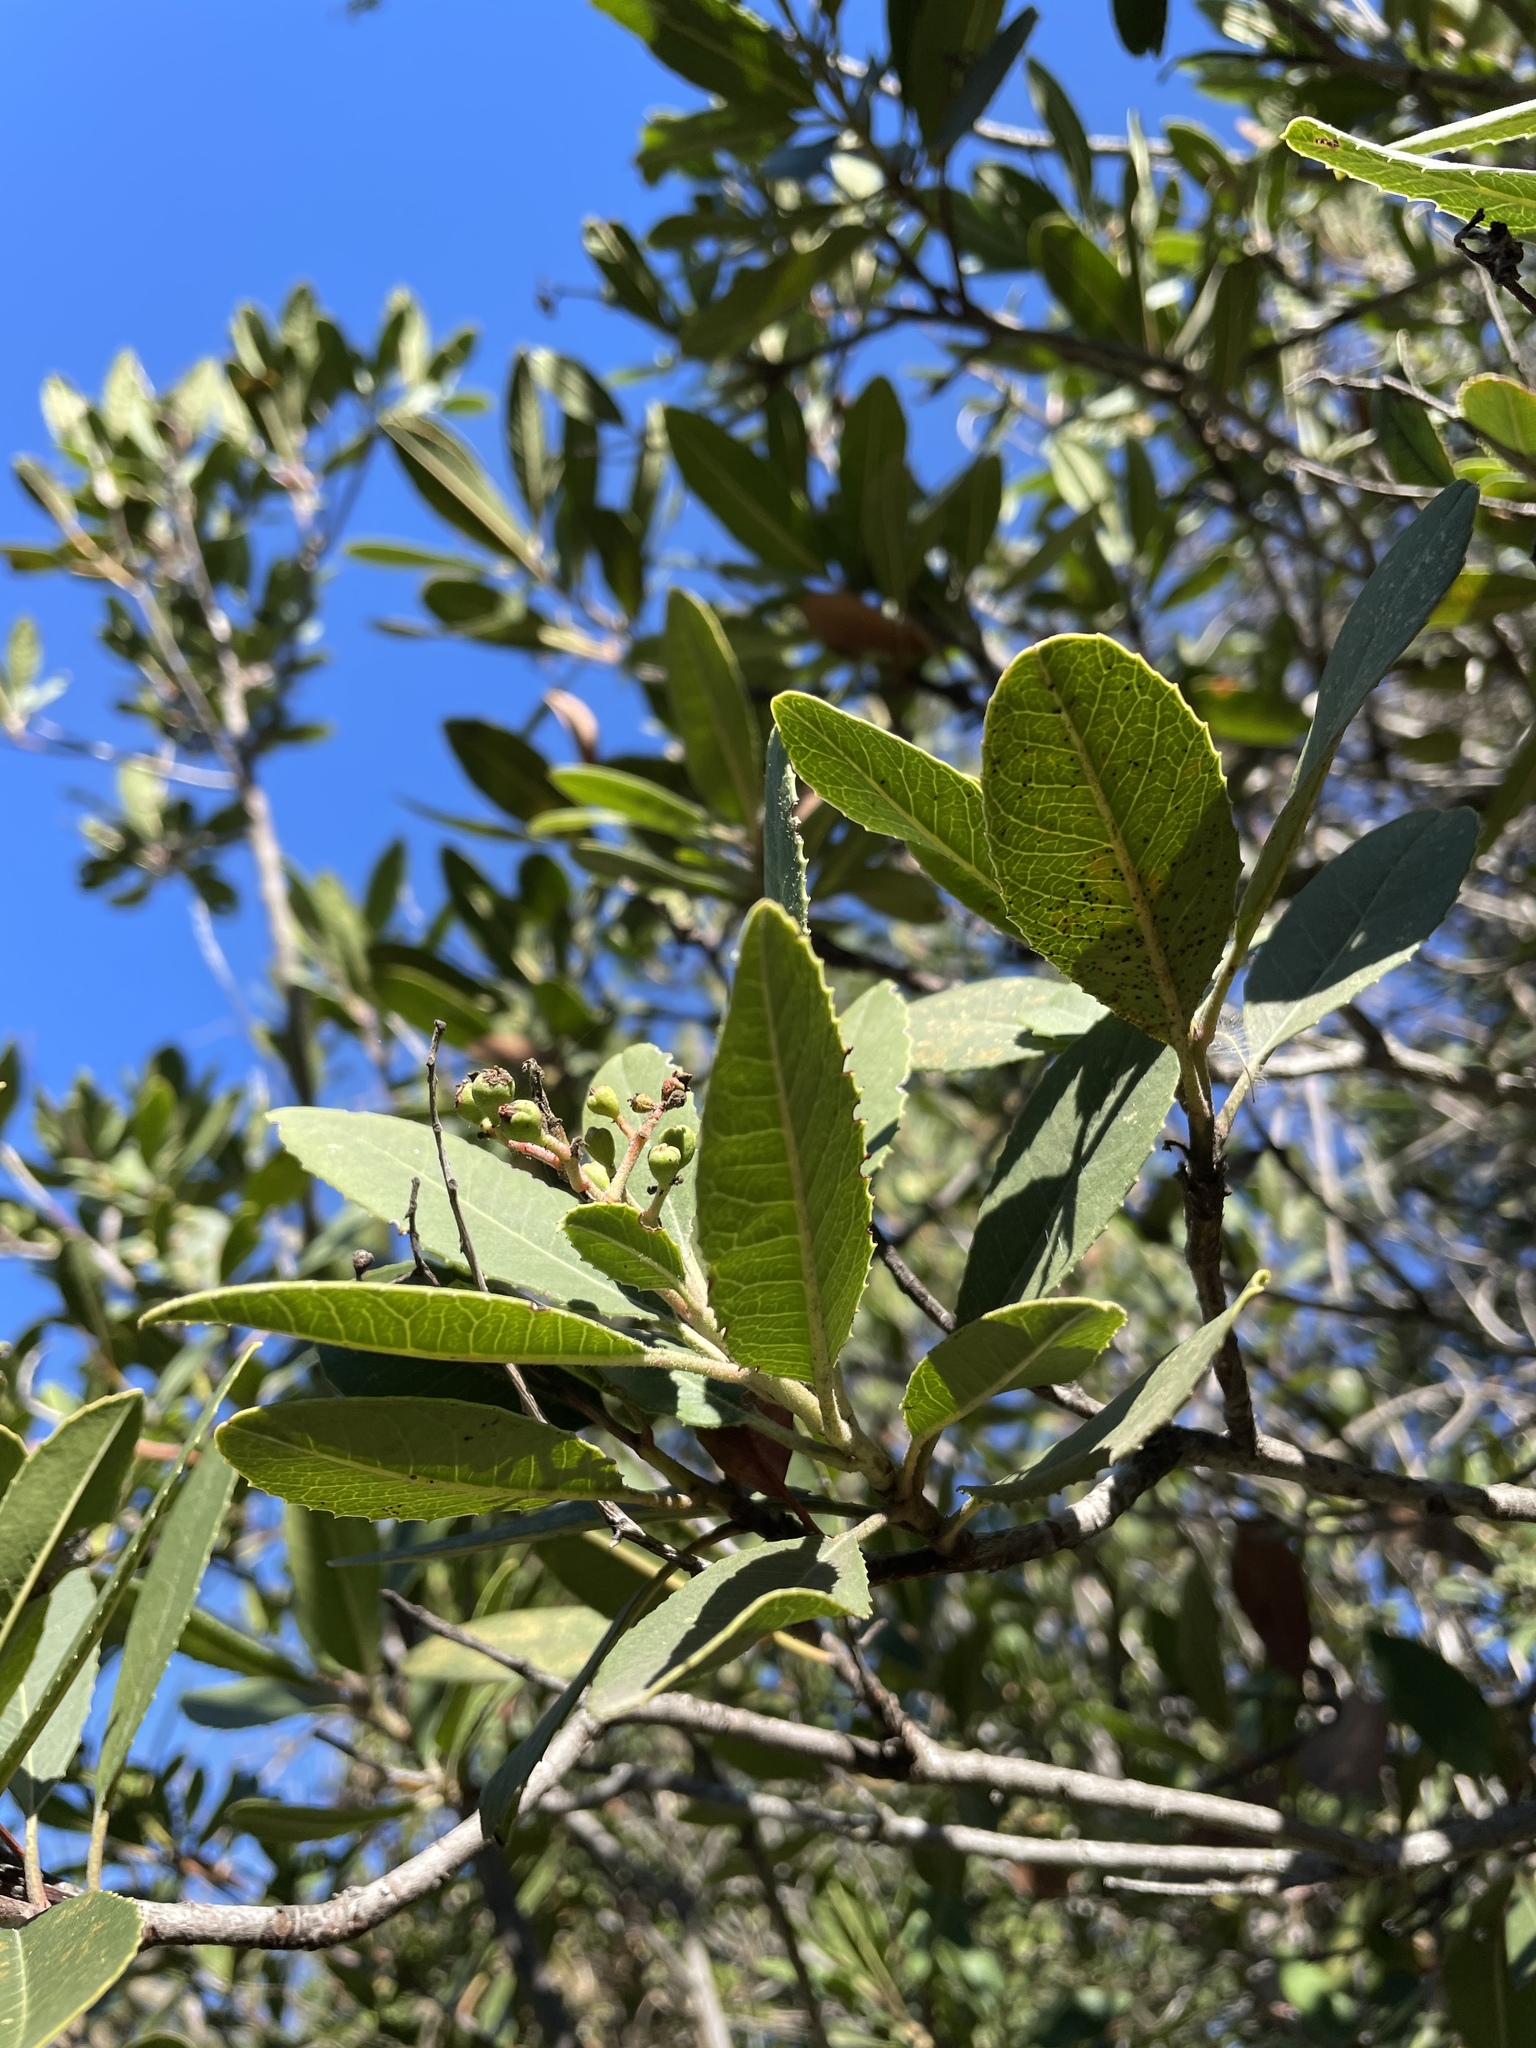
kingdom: Plantae
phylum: Tracheophyta
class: Magnoliopsida
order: Rosales
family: Rosaceae
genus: Heteromeles
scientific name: Heteromeles arbutifolia
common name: California-holly
